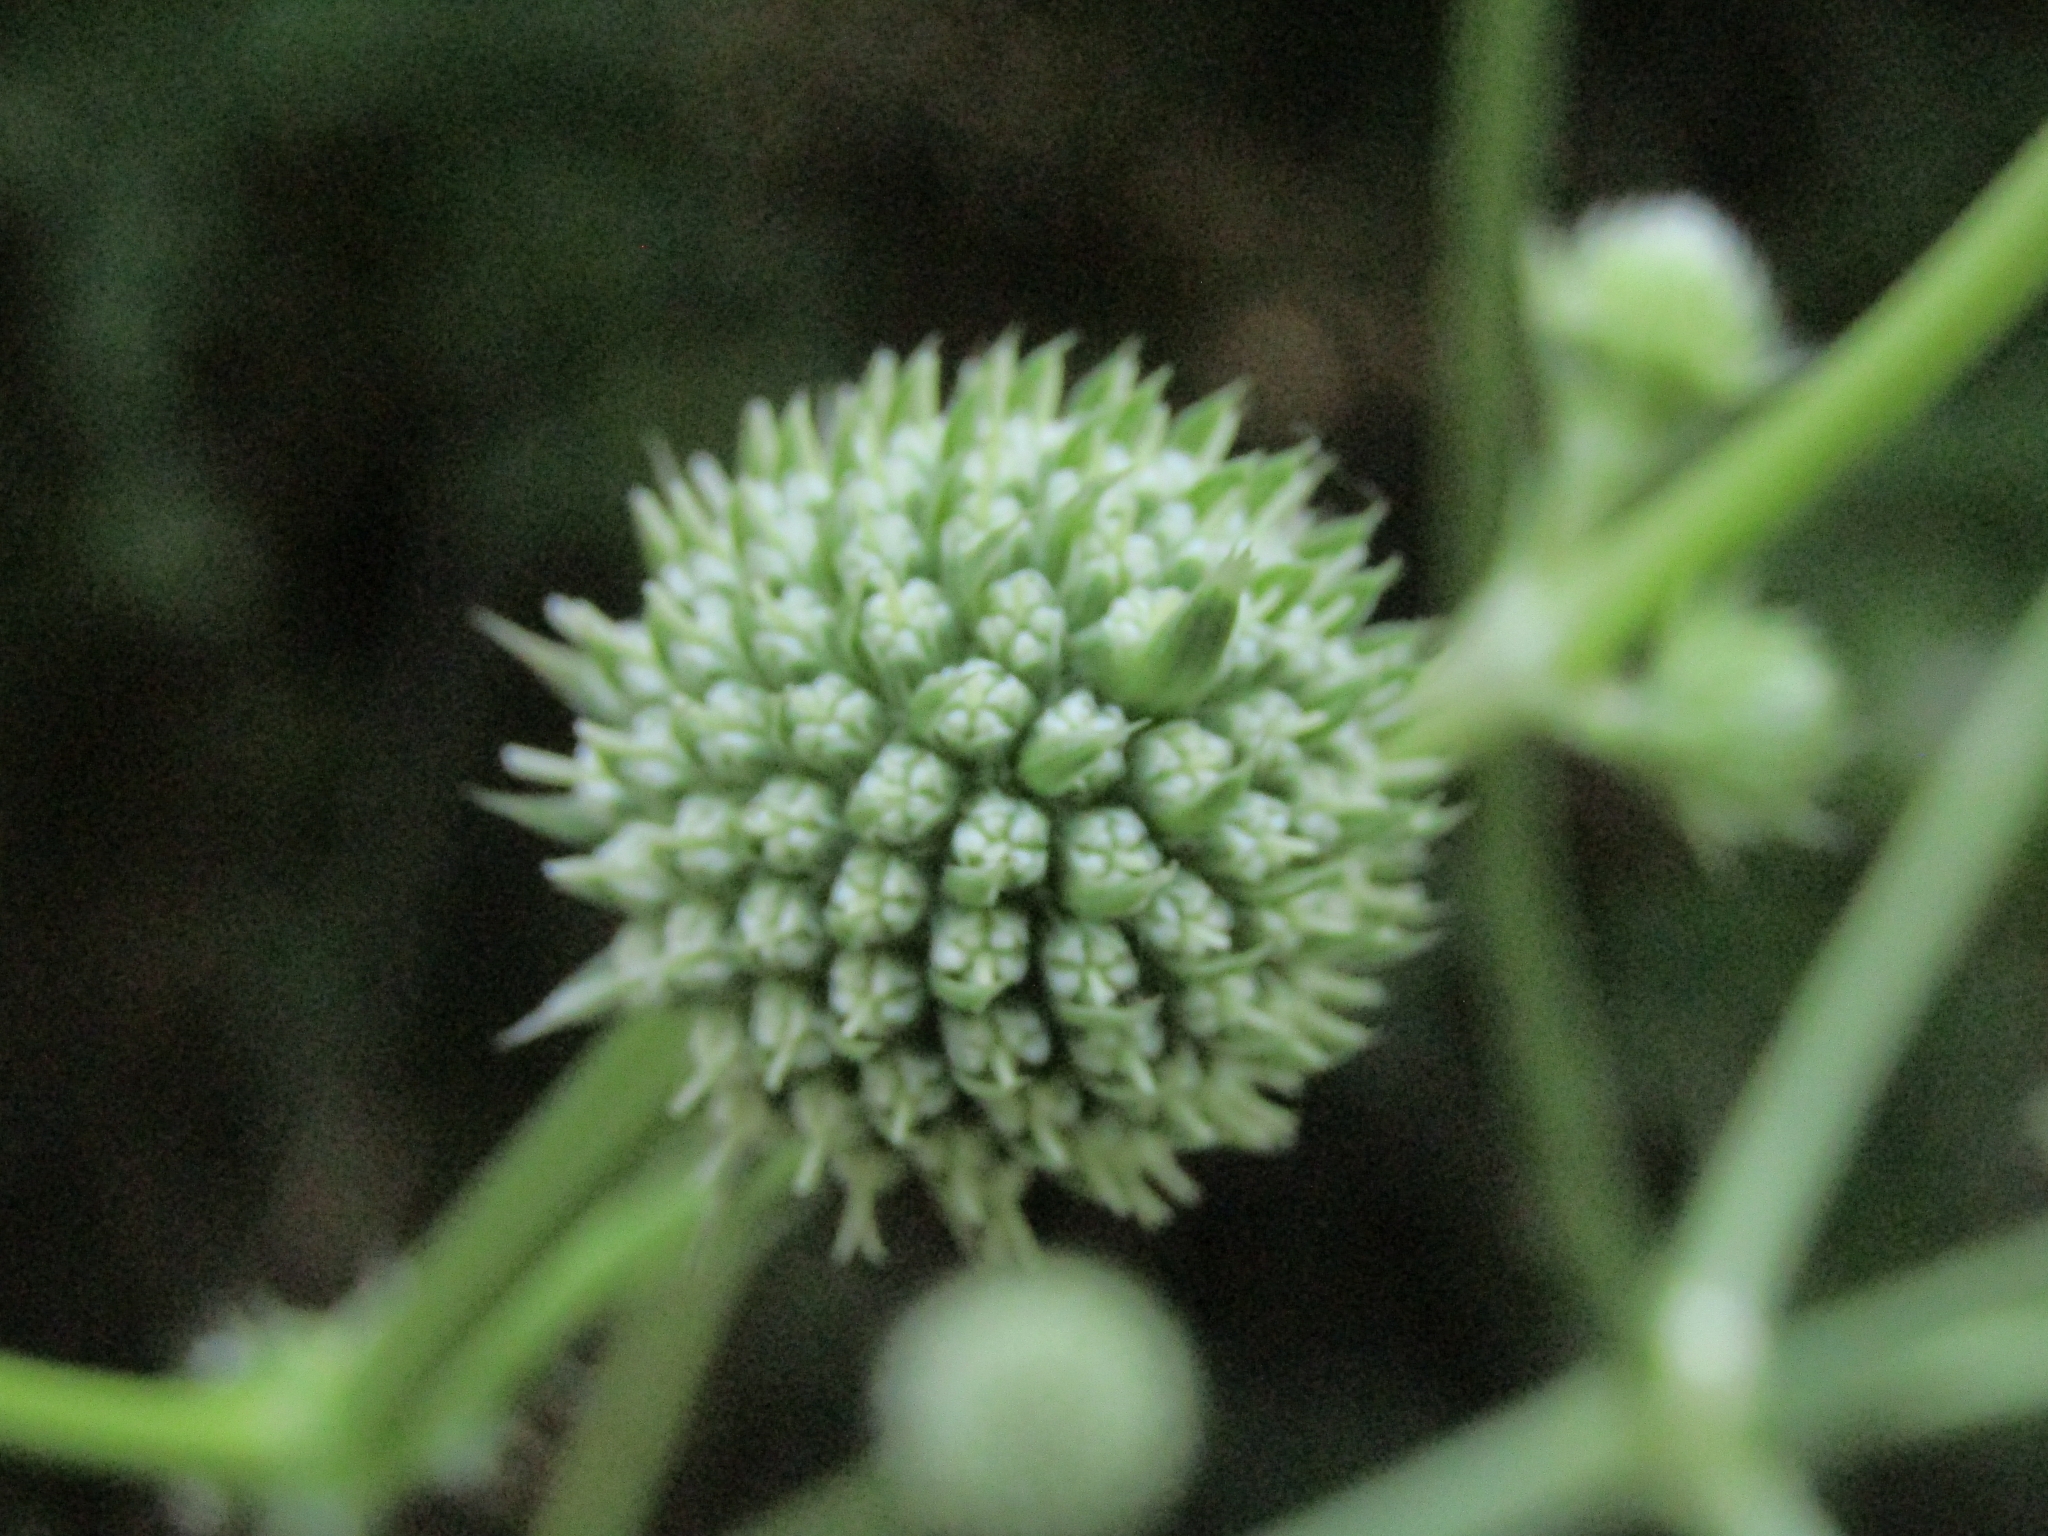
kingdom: Plantae
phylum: Tracheophyta
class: Magnoliopsida
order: Apiales
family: Apiaceae
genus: Eryngium
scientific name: Eryngium humboldtii
